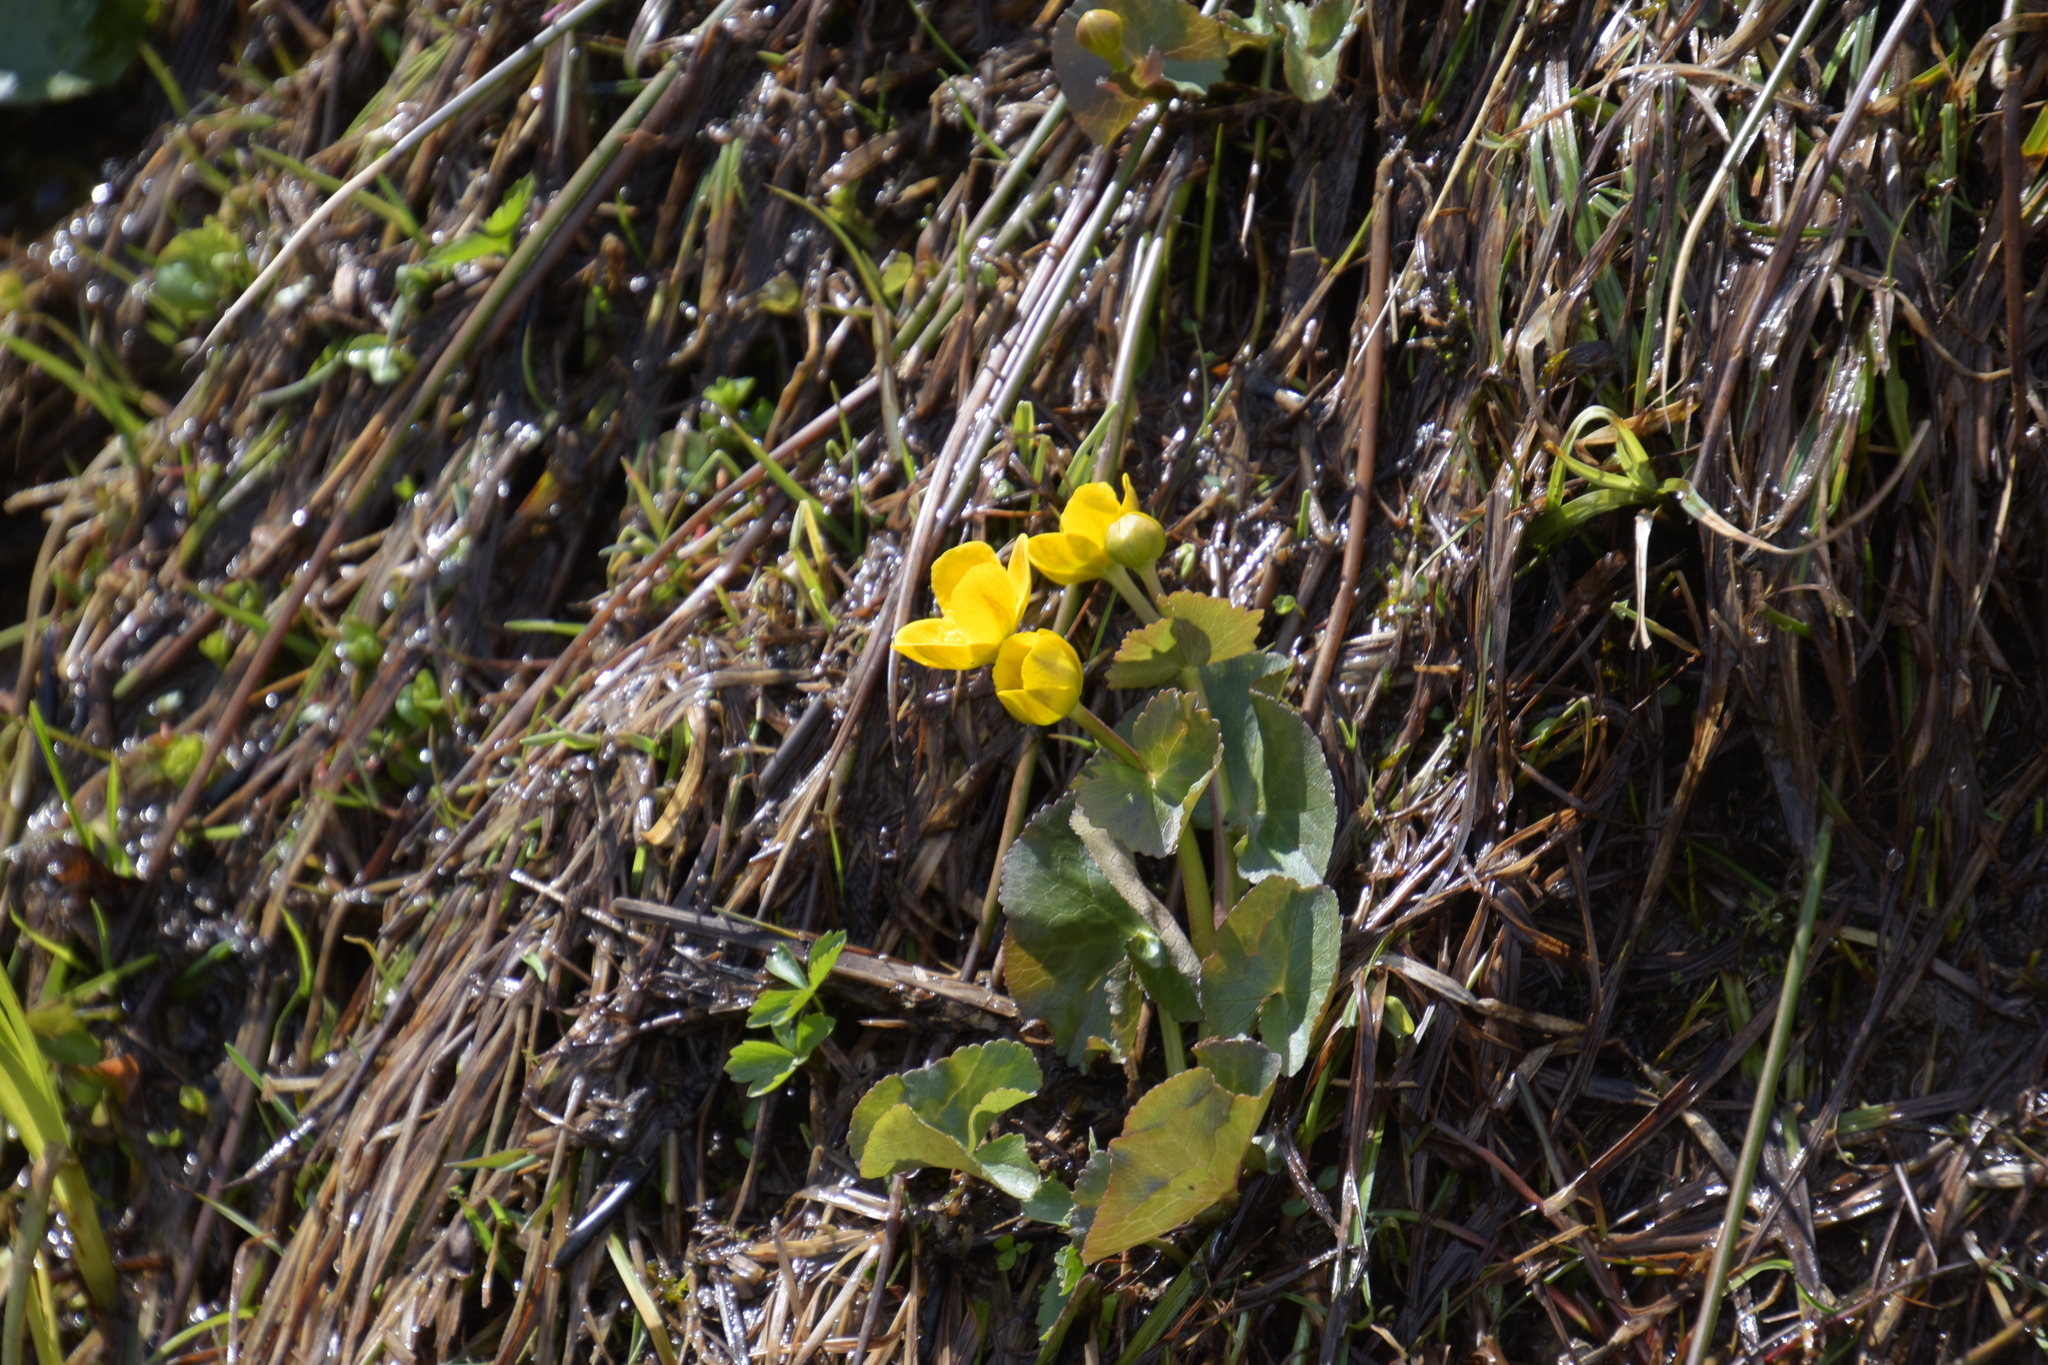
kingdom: Plantae
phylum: Tracheophyta
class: Magnoliopsida
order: Ranunculales
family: Ranunculaceae
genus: Caltha
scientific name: Caltha palustris
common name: Marsh marigold
